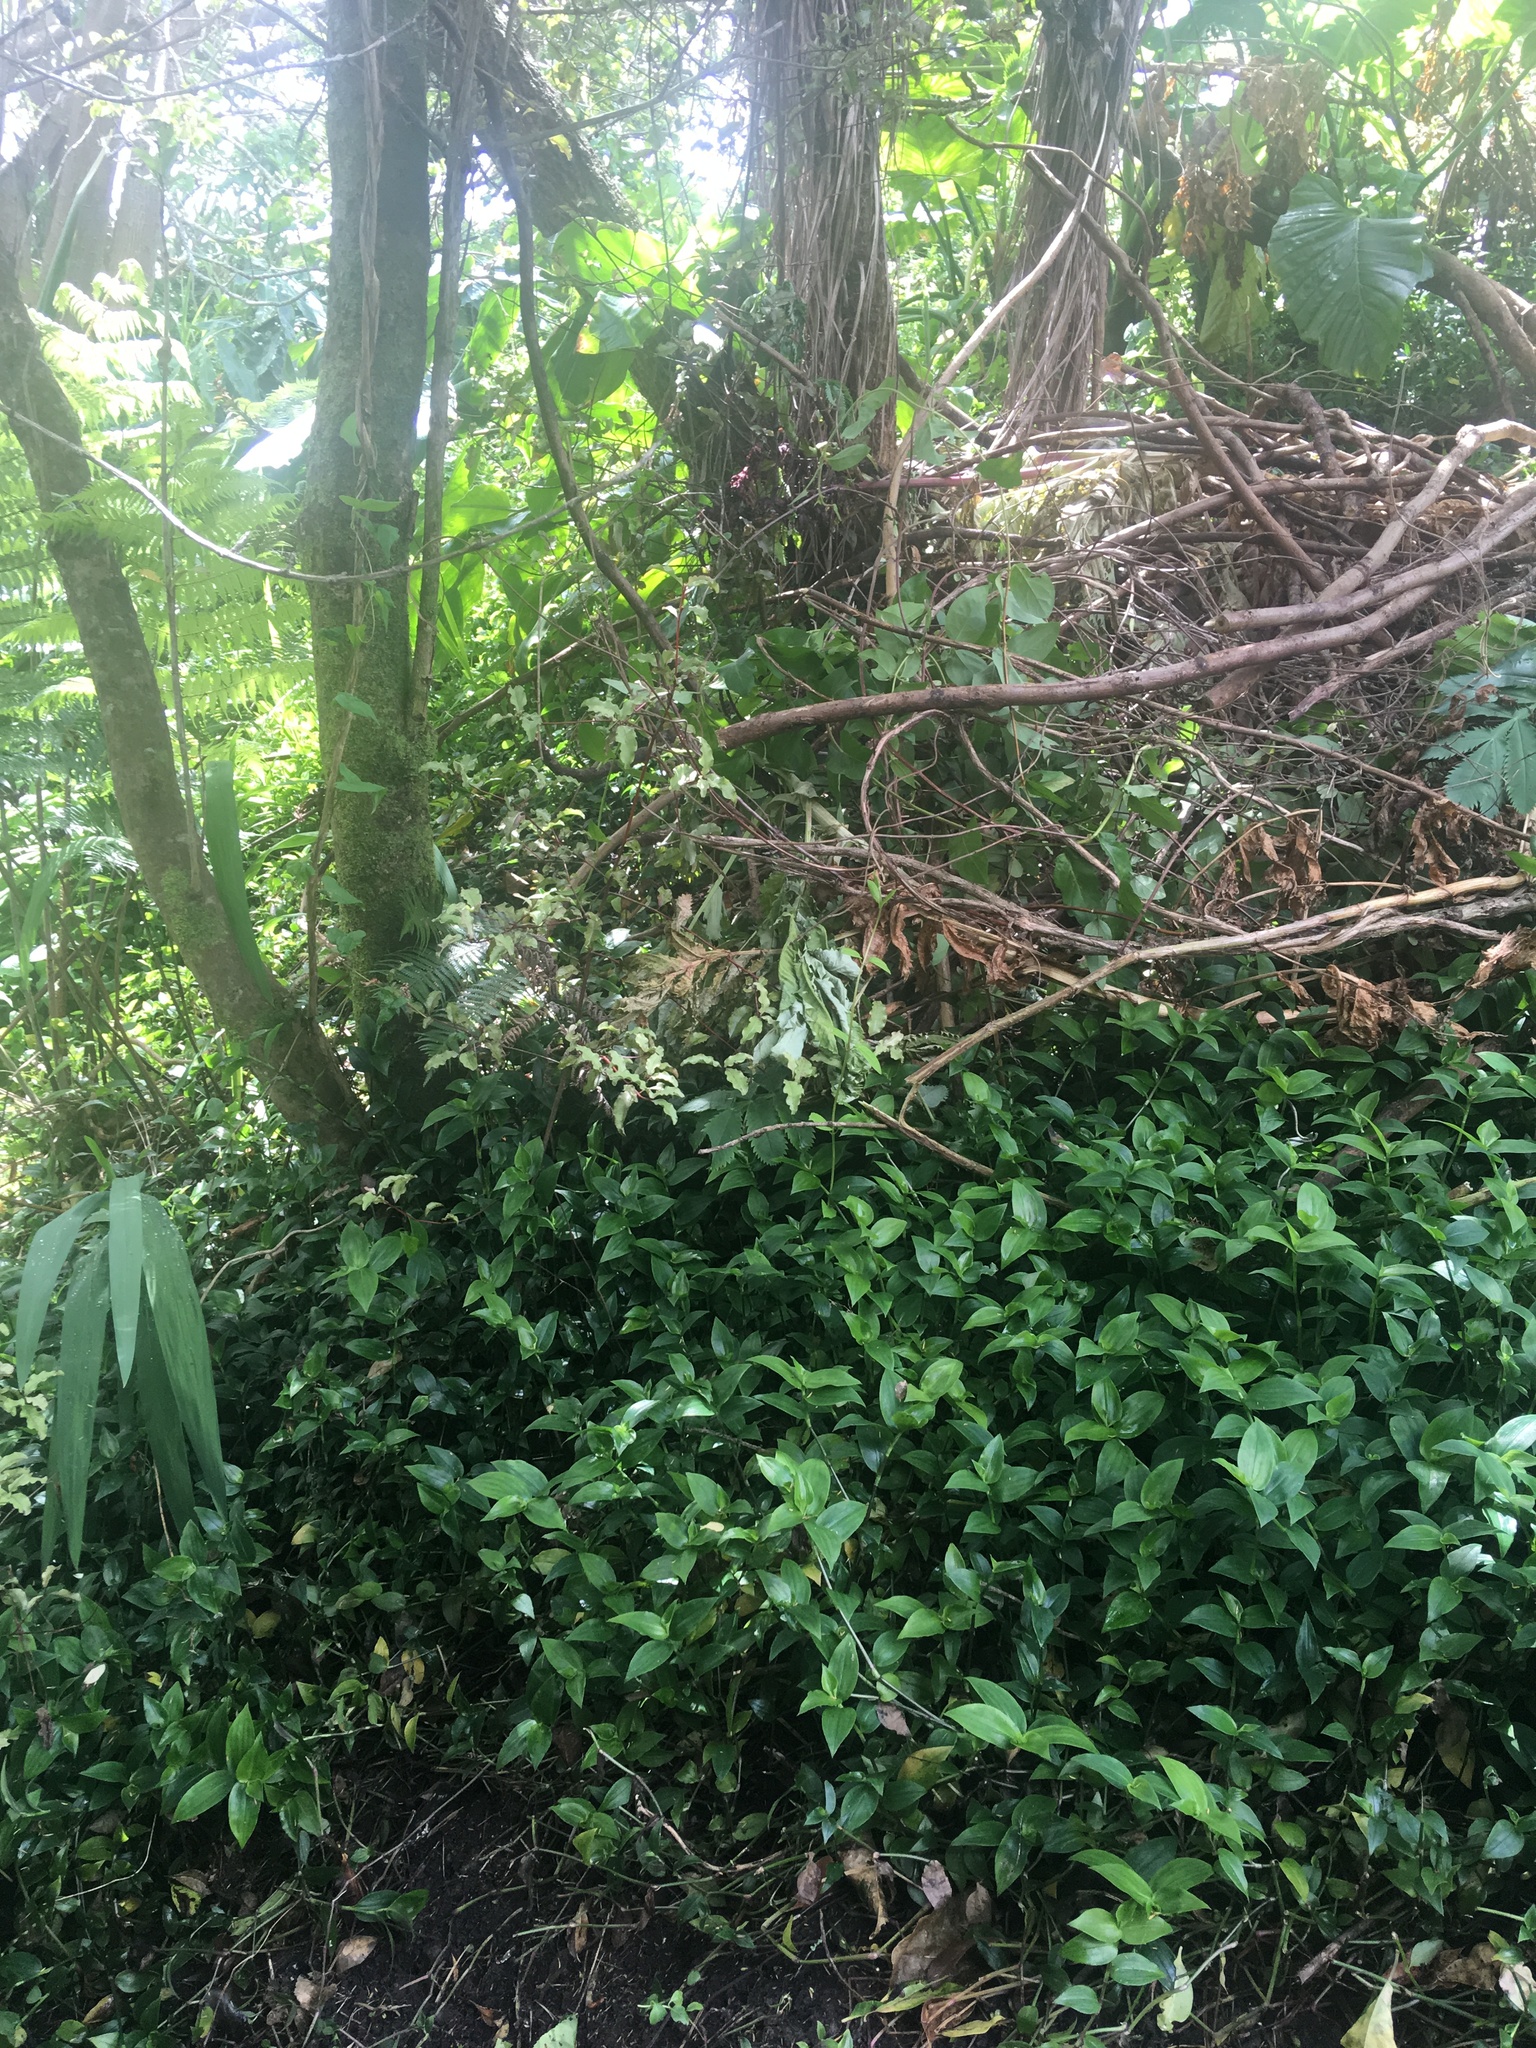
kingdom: Plantae
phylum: Tracheophyta
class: Liliopsida
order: Commelinales
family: Commelinaceae
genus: Tradescantia
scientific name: Tradescantia fluminensis
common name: Wandering-jew
